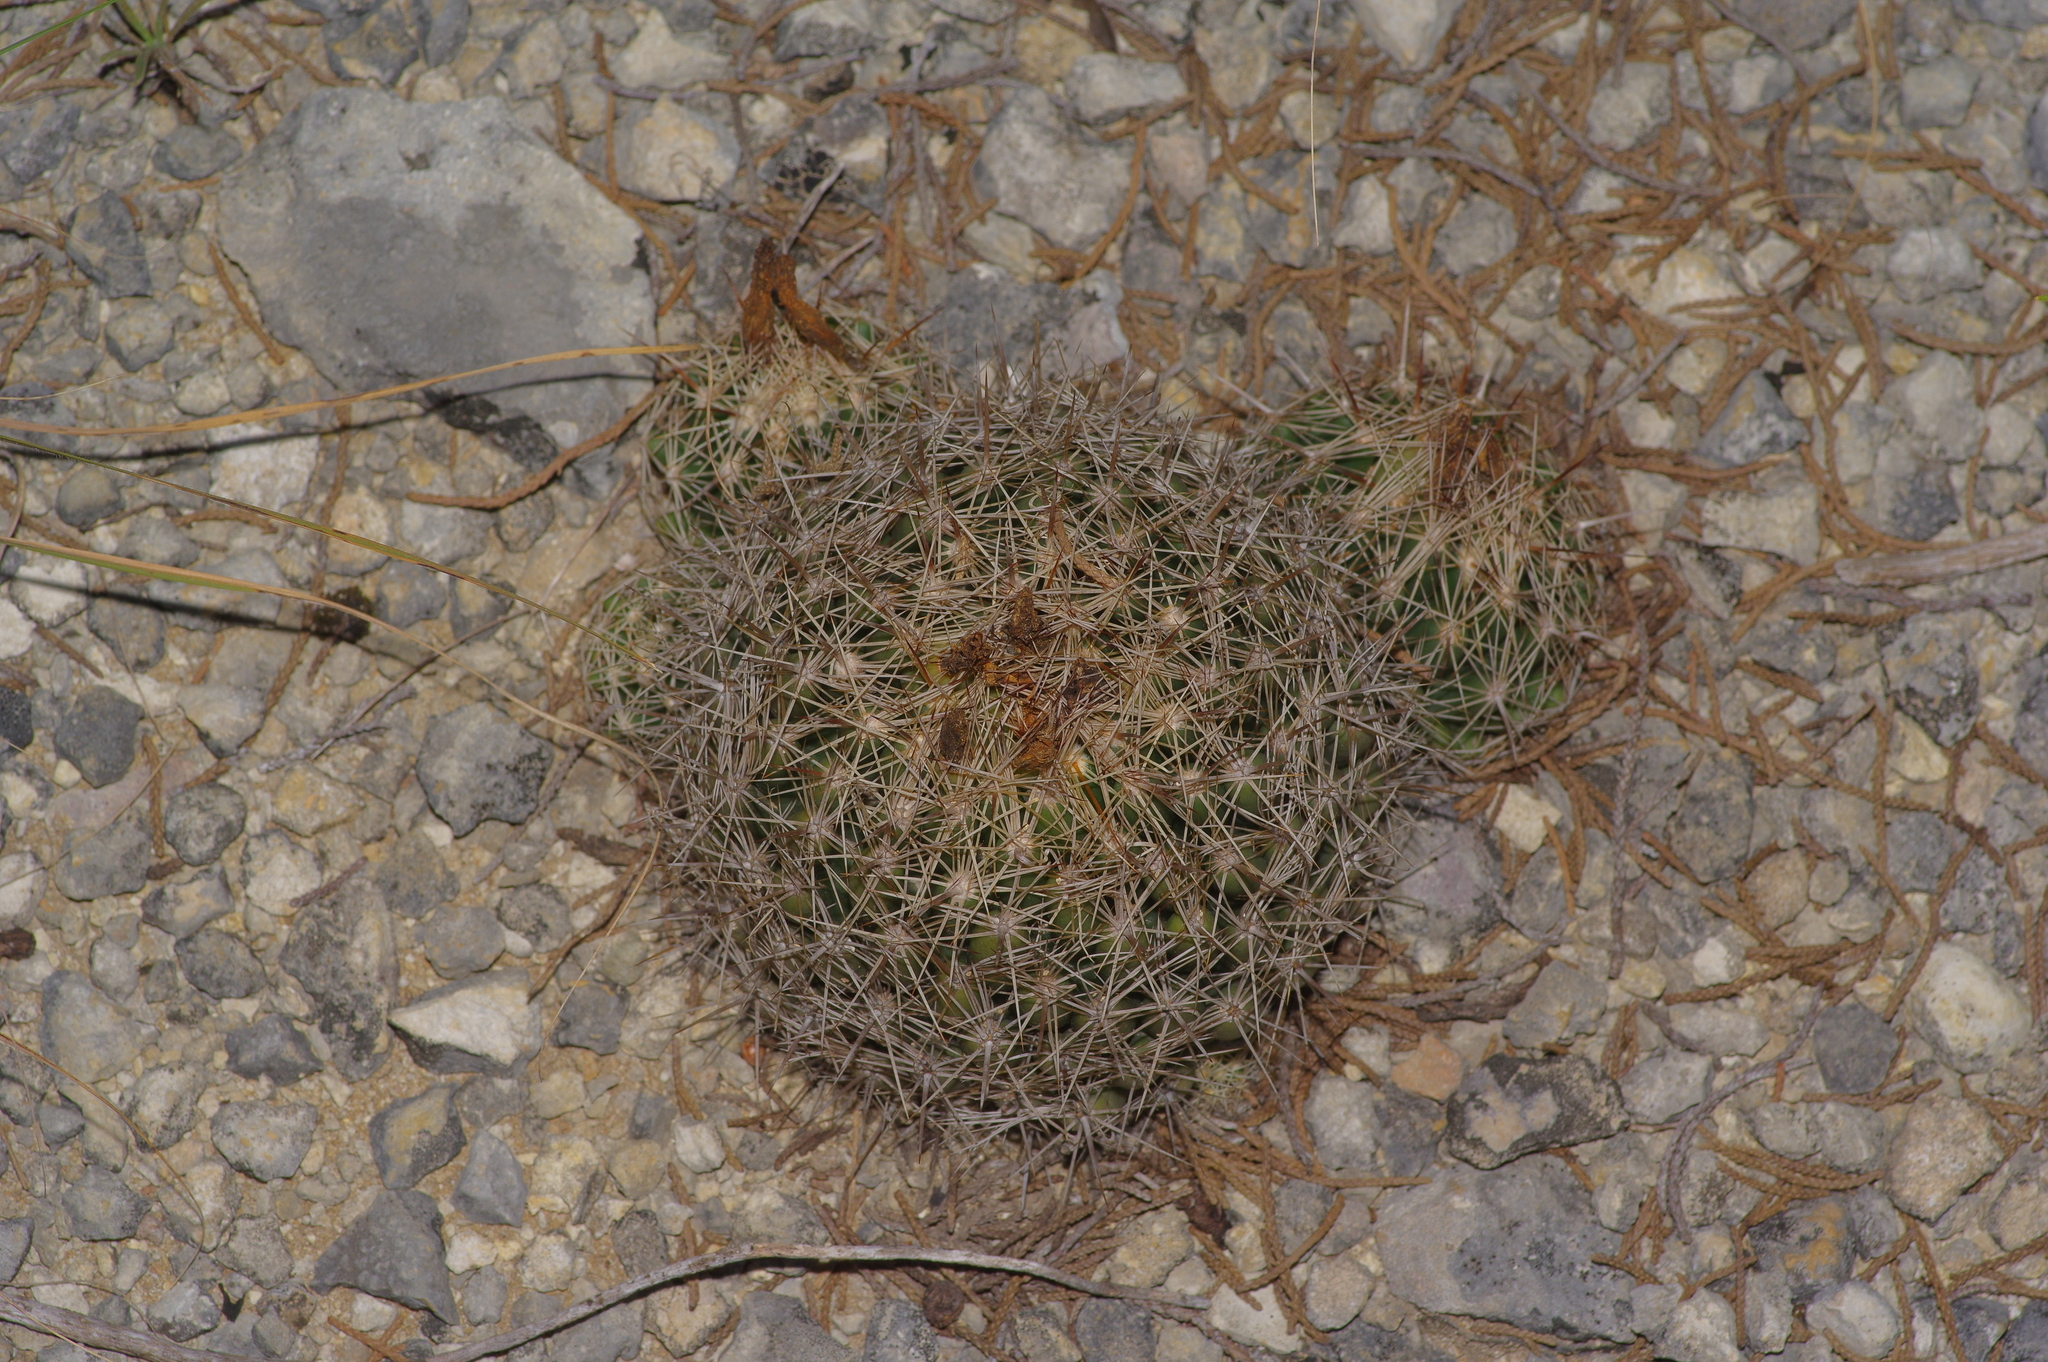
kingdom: Plantae
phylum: Tracheophyta
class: Magnoliopsida
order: Caryophyllales
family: Cactaceae
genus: Coryphantha
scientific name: Coryphantha sulcata
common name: Finger cactus
